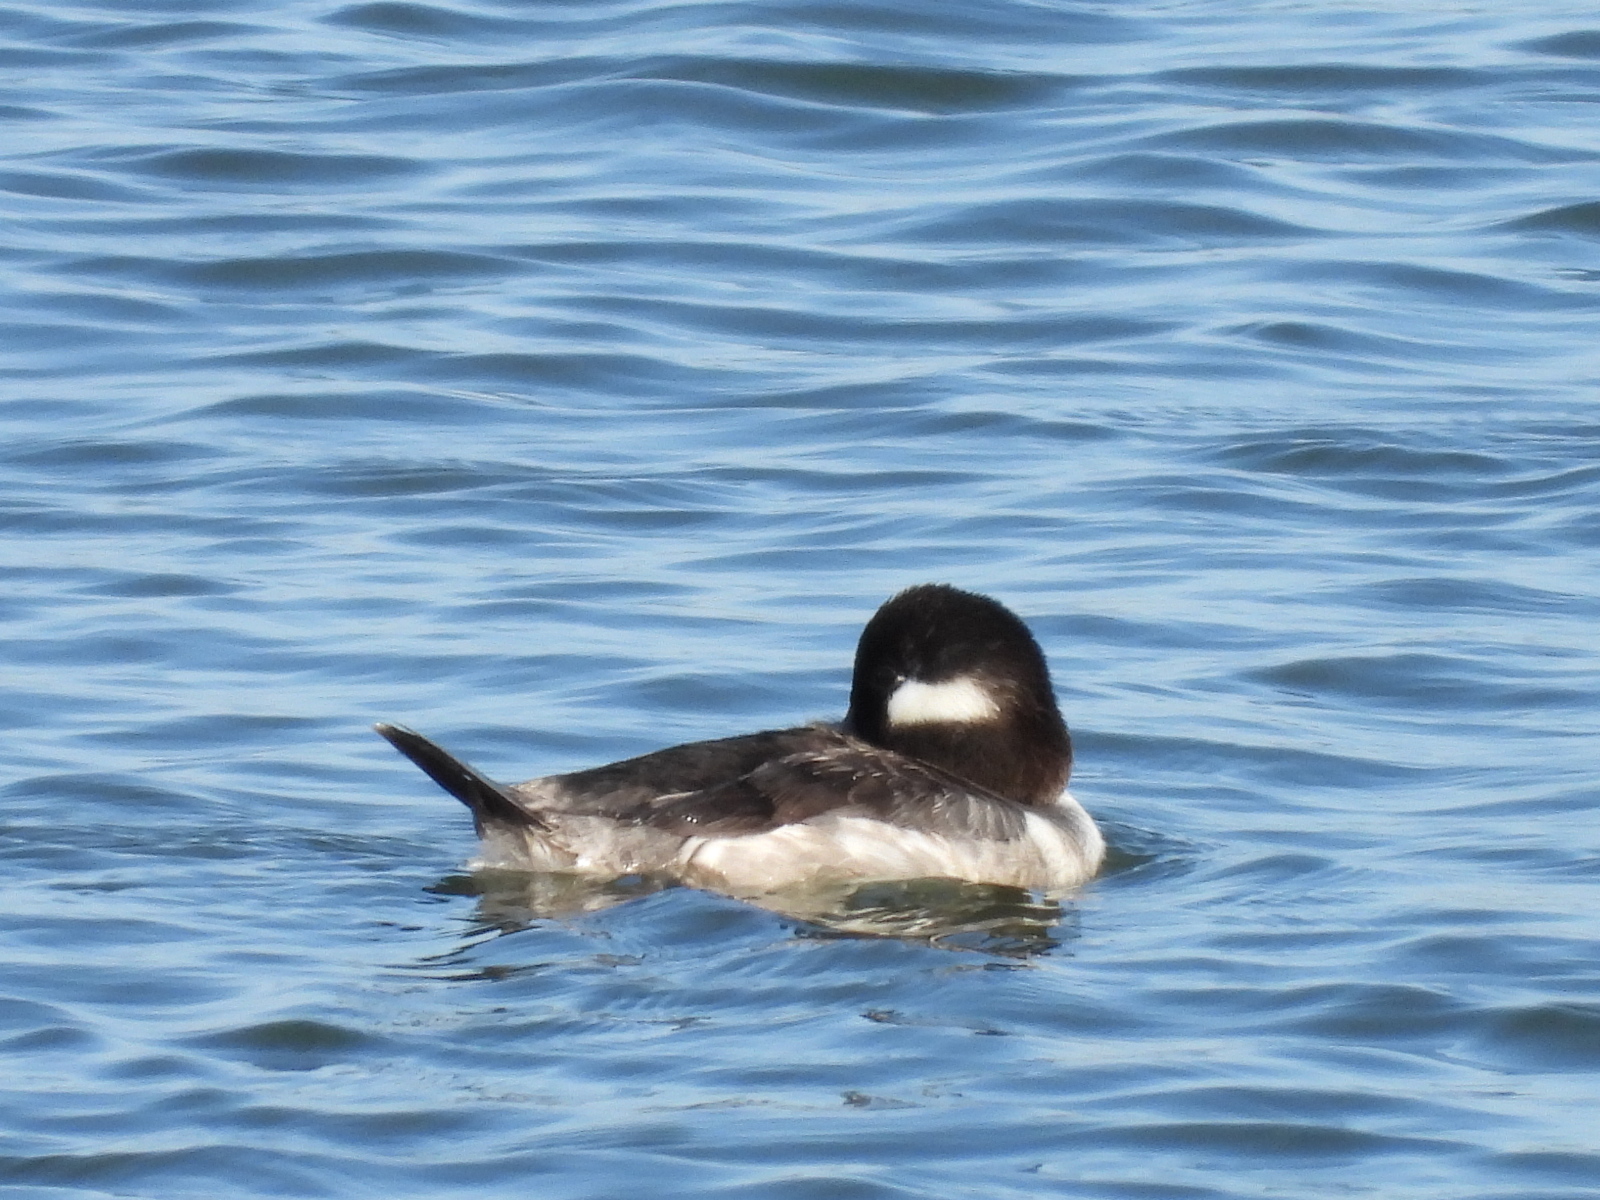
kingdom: Animalia
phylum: Chordata
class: Aves
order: Anseriformes
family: Anatidae
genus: Bucephala
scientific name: Bucephala albeola
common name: Bufflehead
